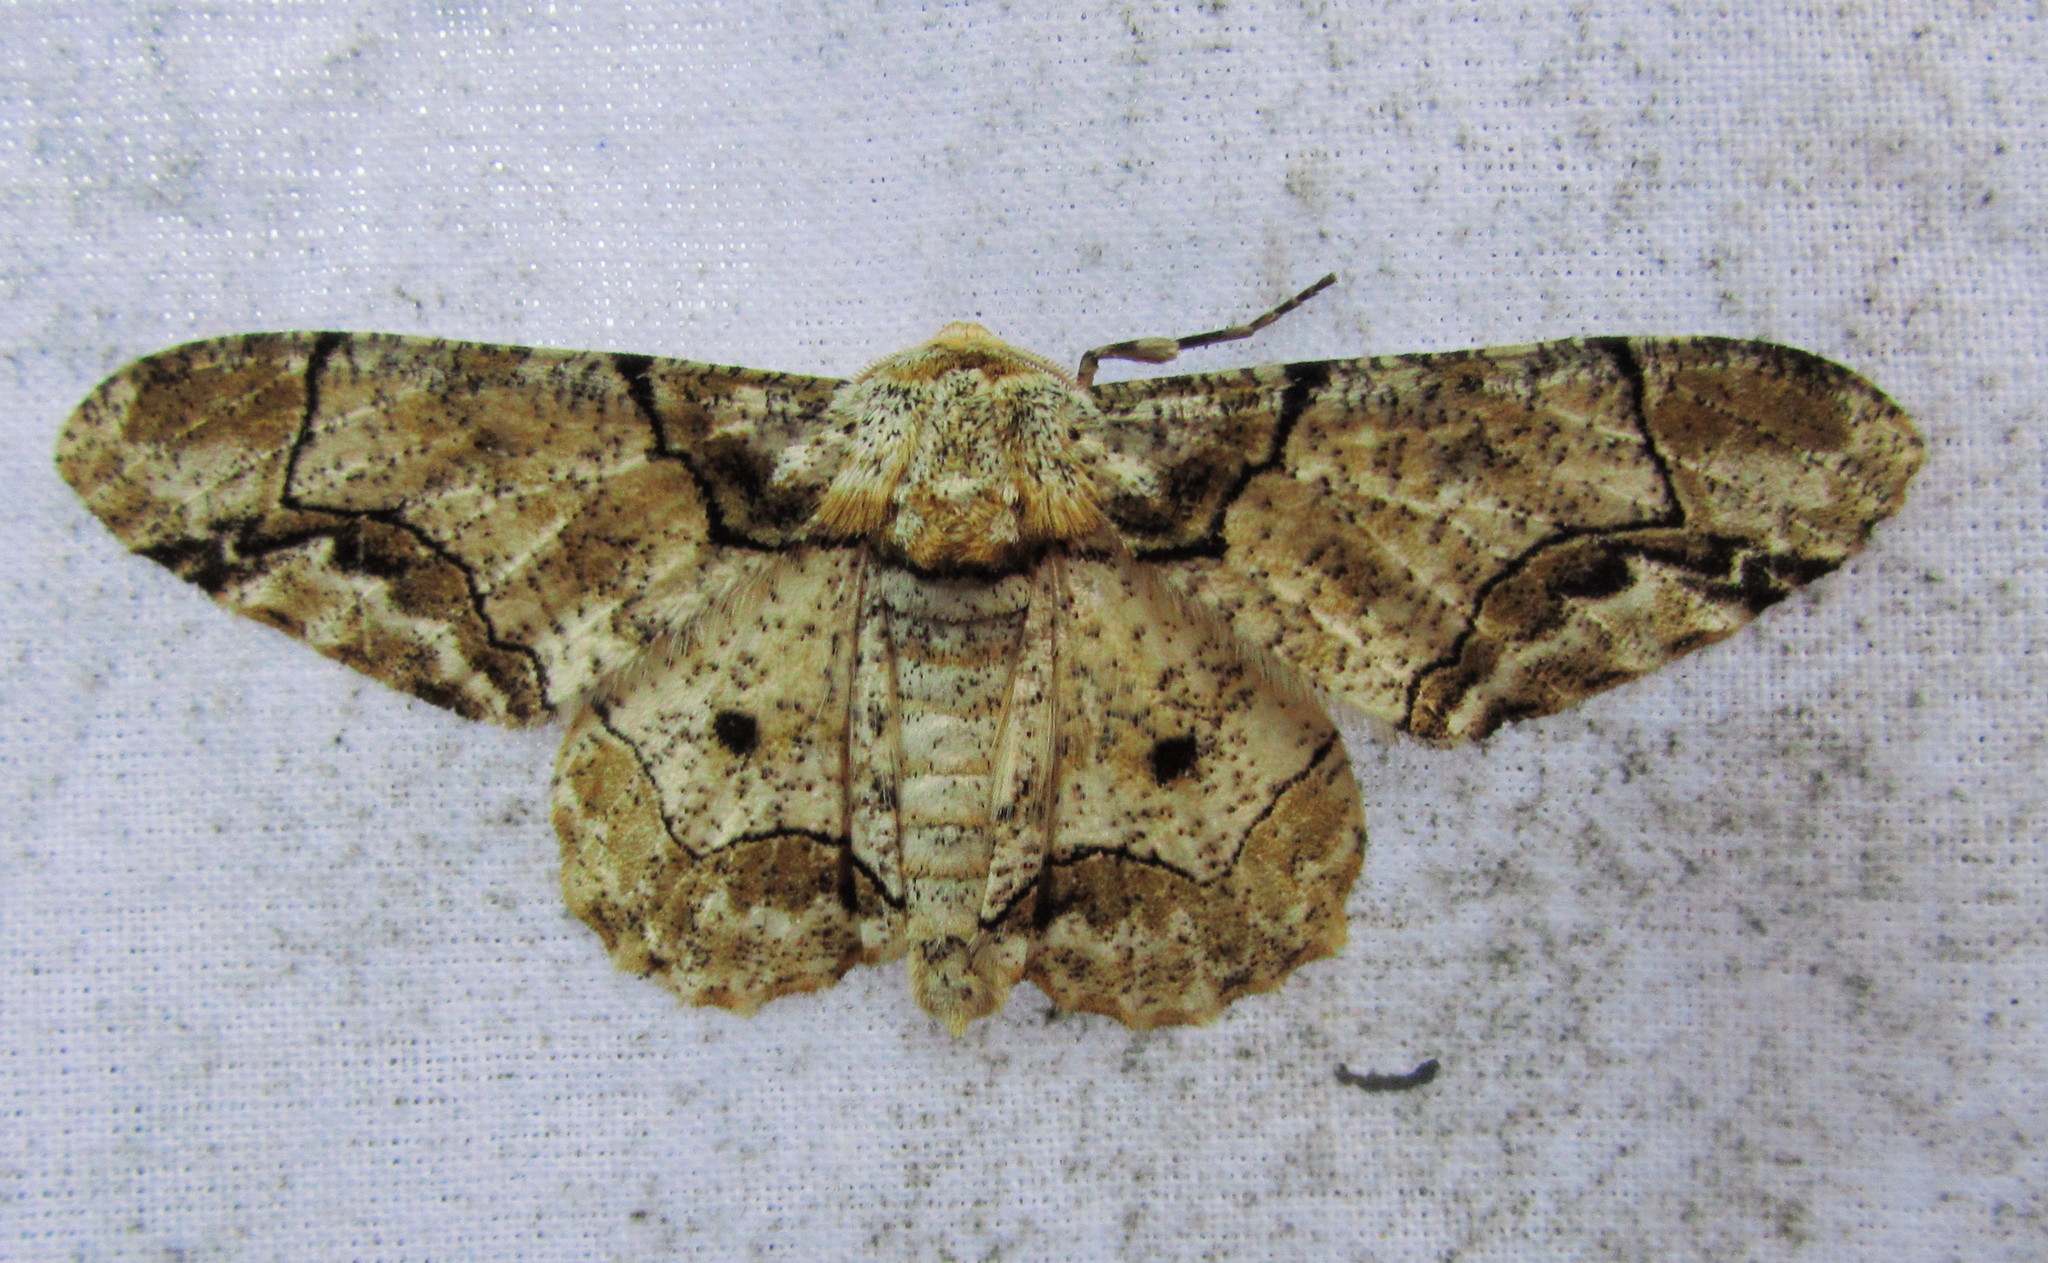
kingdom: Animalia
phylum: Arthropoda
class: Insecta
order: Lepidoptera
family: Geometridae
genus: Biston
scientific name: Biston bengaliaria
